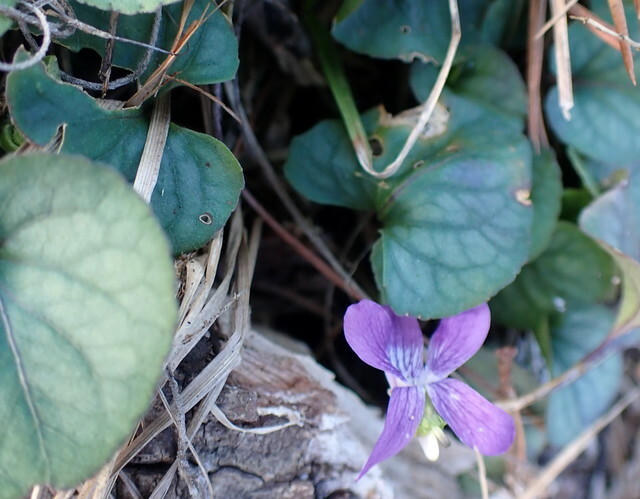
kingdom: Plantae
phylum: Tracheophyta
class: Magnoliopsida
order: Malpighiales
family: Violaceae
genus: Viola
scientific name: Viola walteri
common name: Prostrate southern violet
